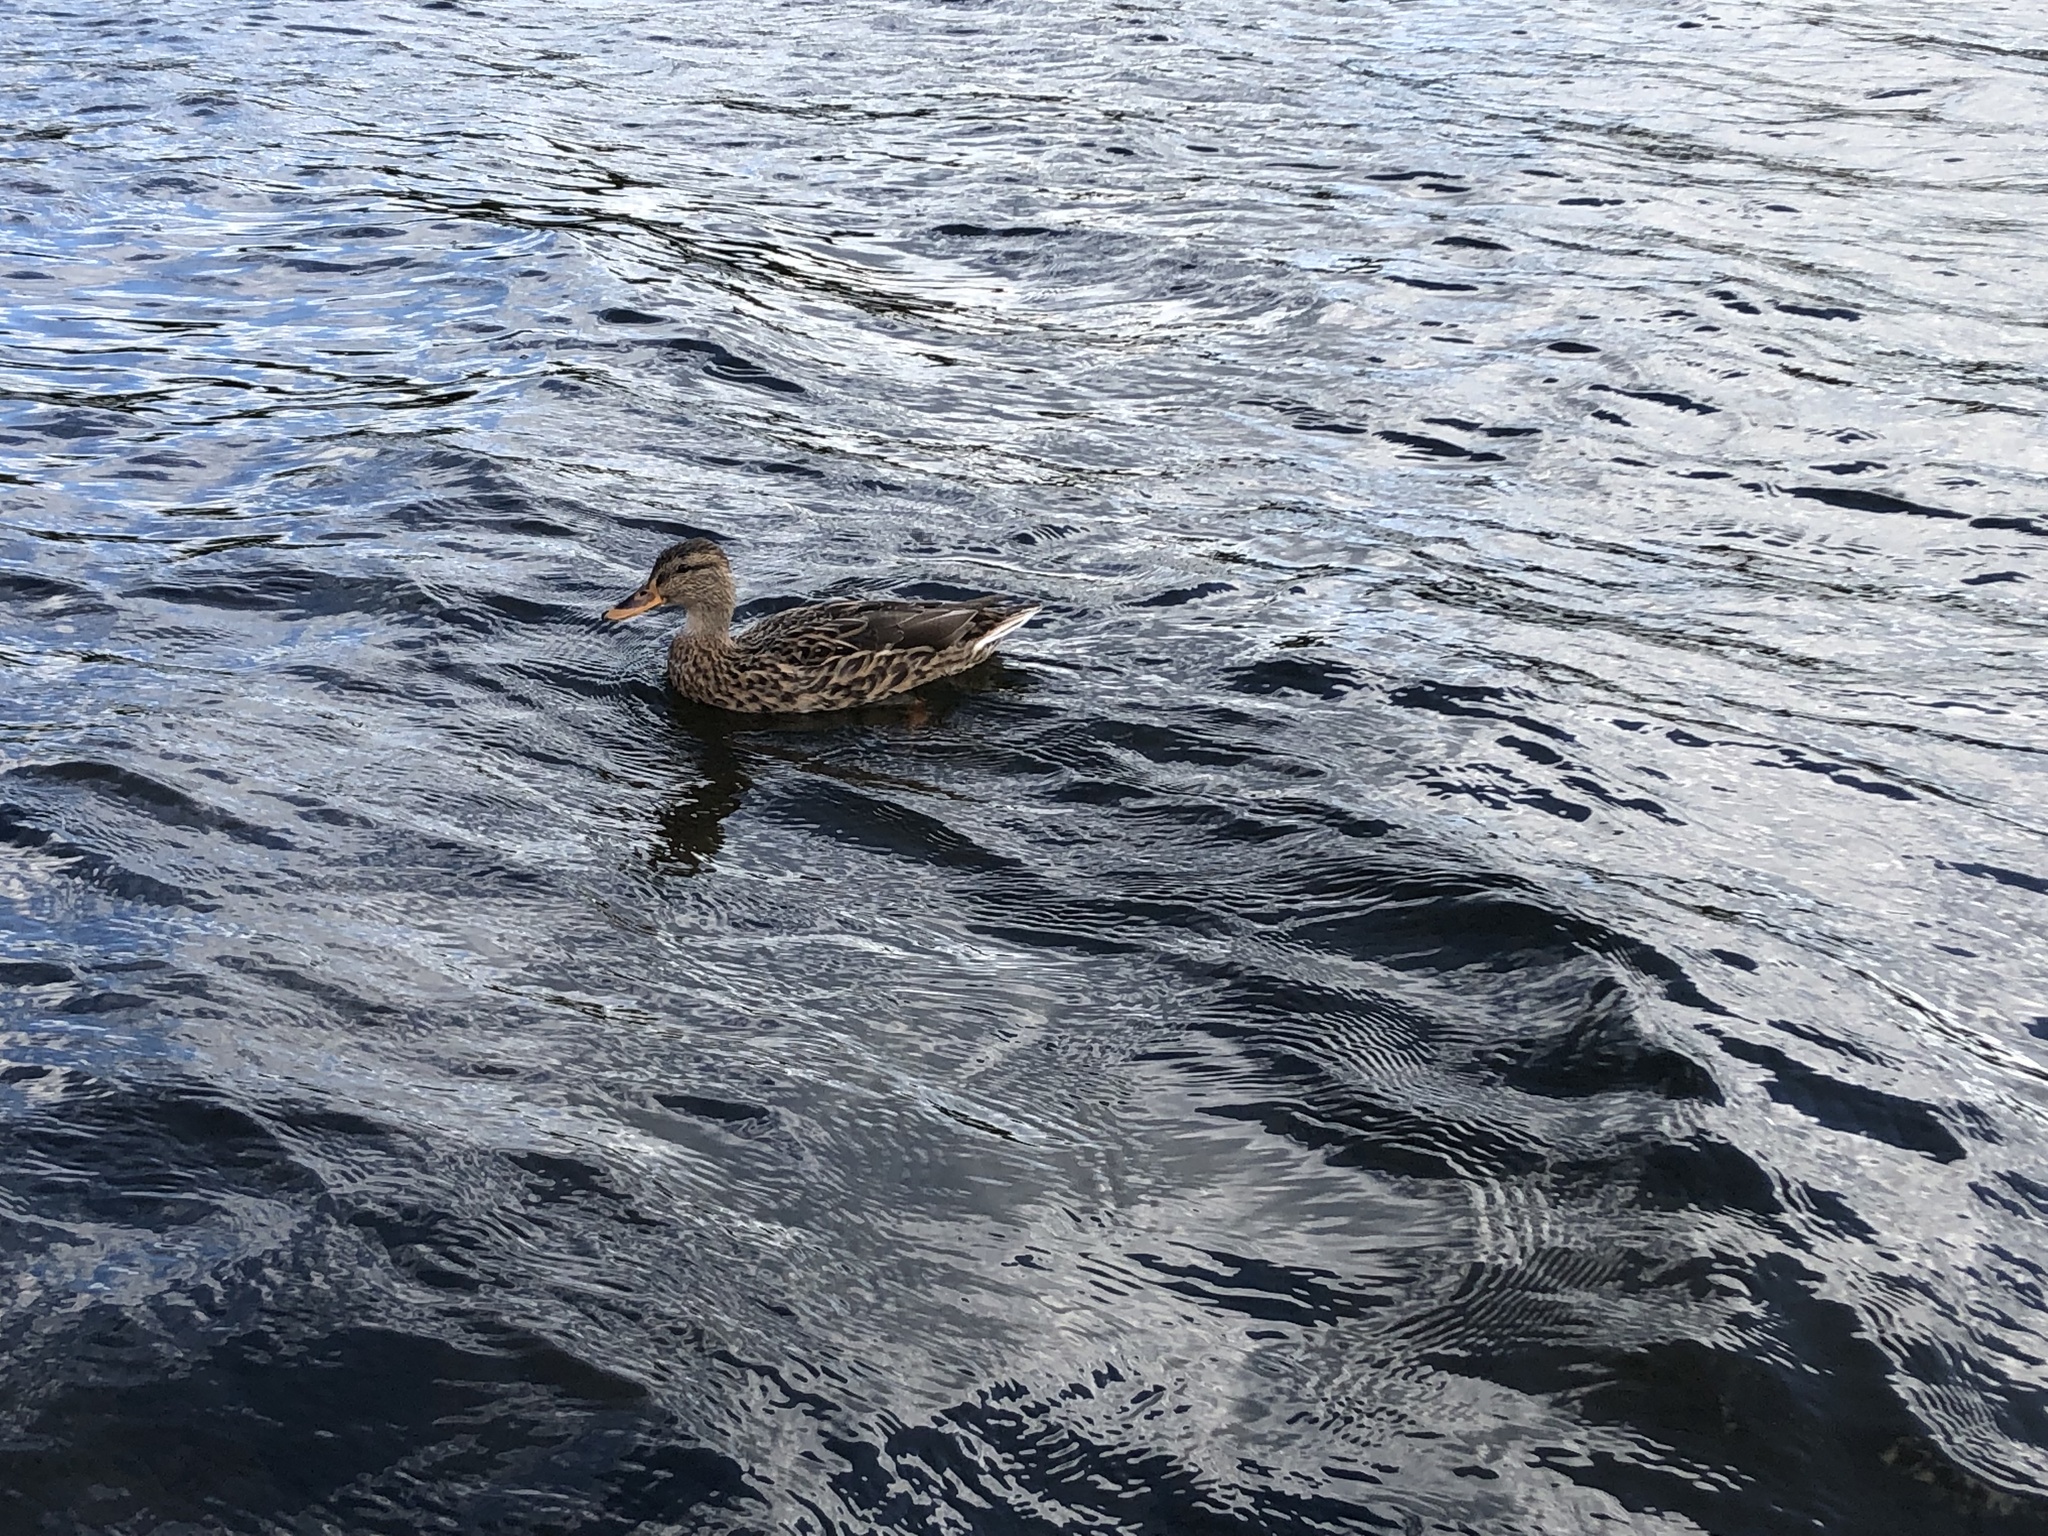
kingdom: Animalia
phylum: Chordata
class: Aves
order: Anseriformes
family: Anatidae
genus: Anas
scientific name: Anas platyrhynchos
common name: Mallard
